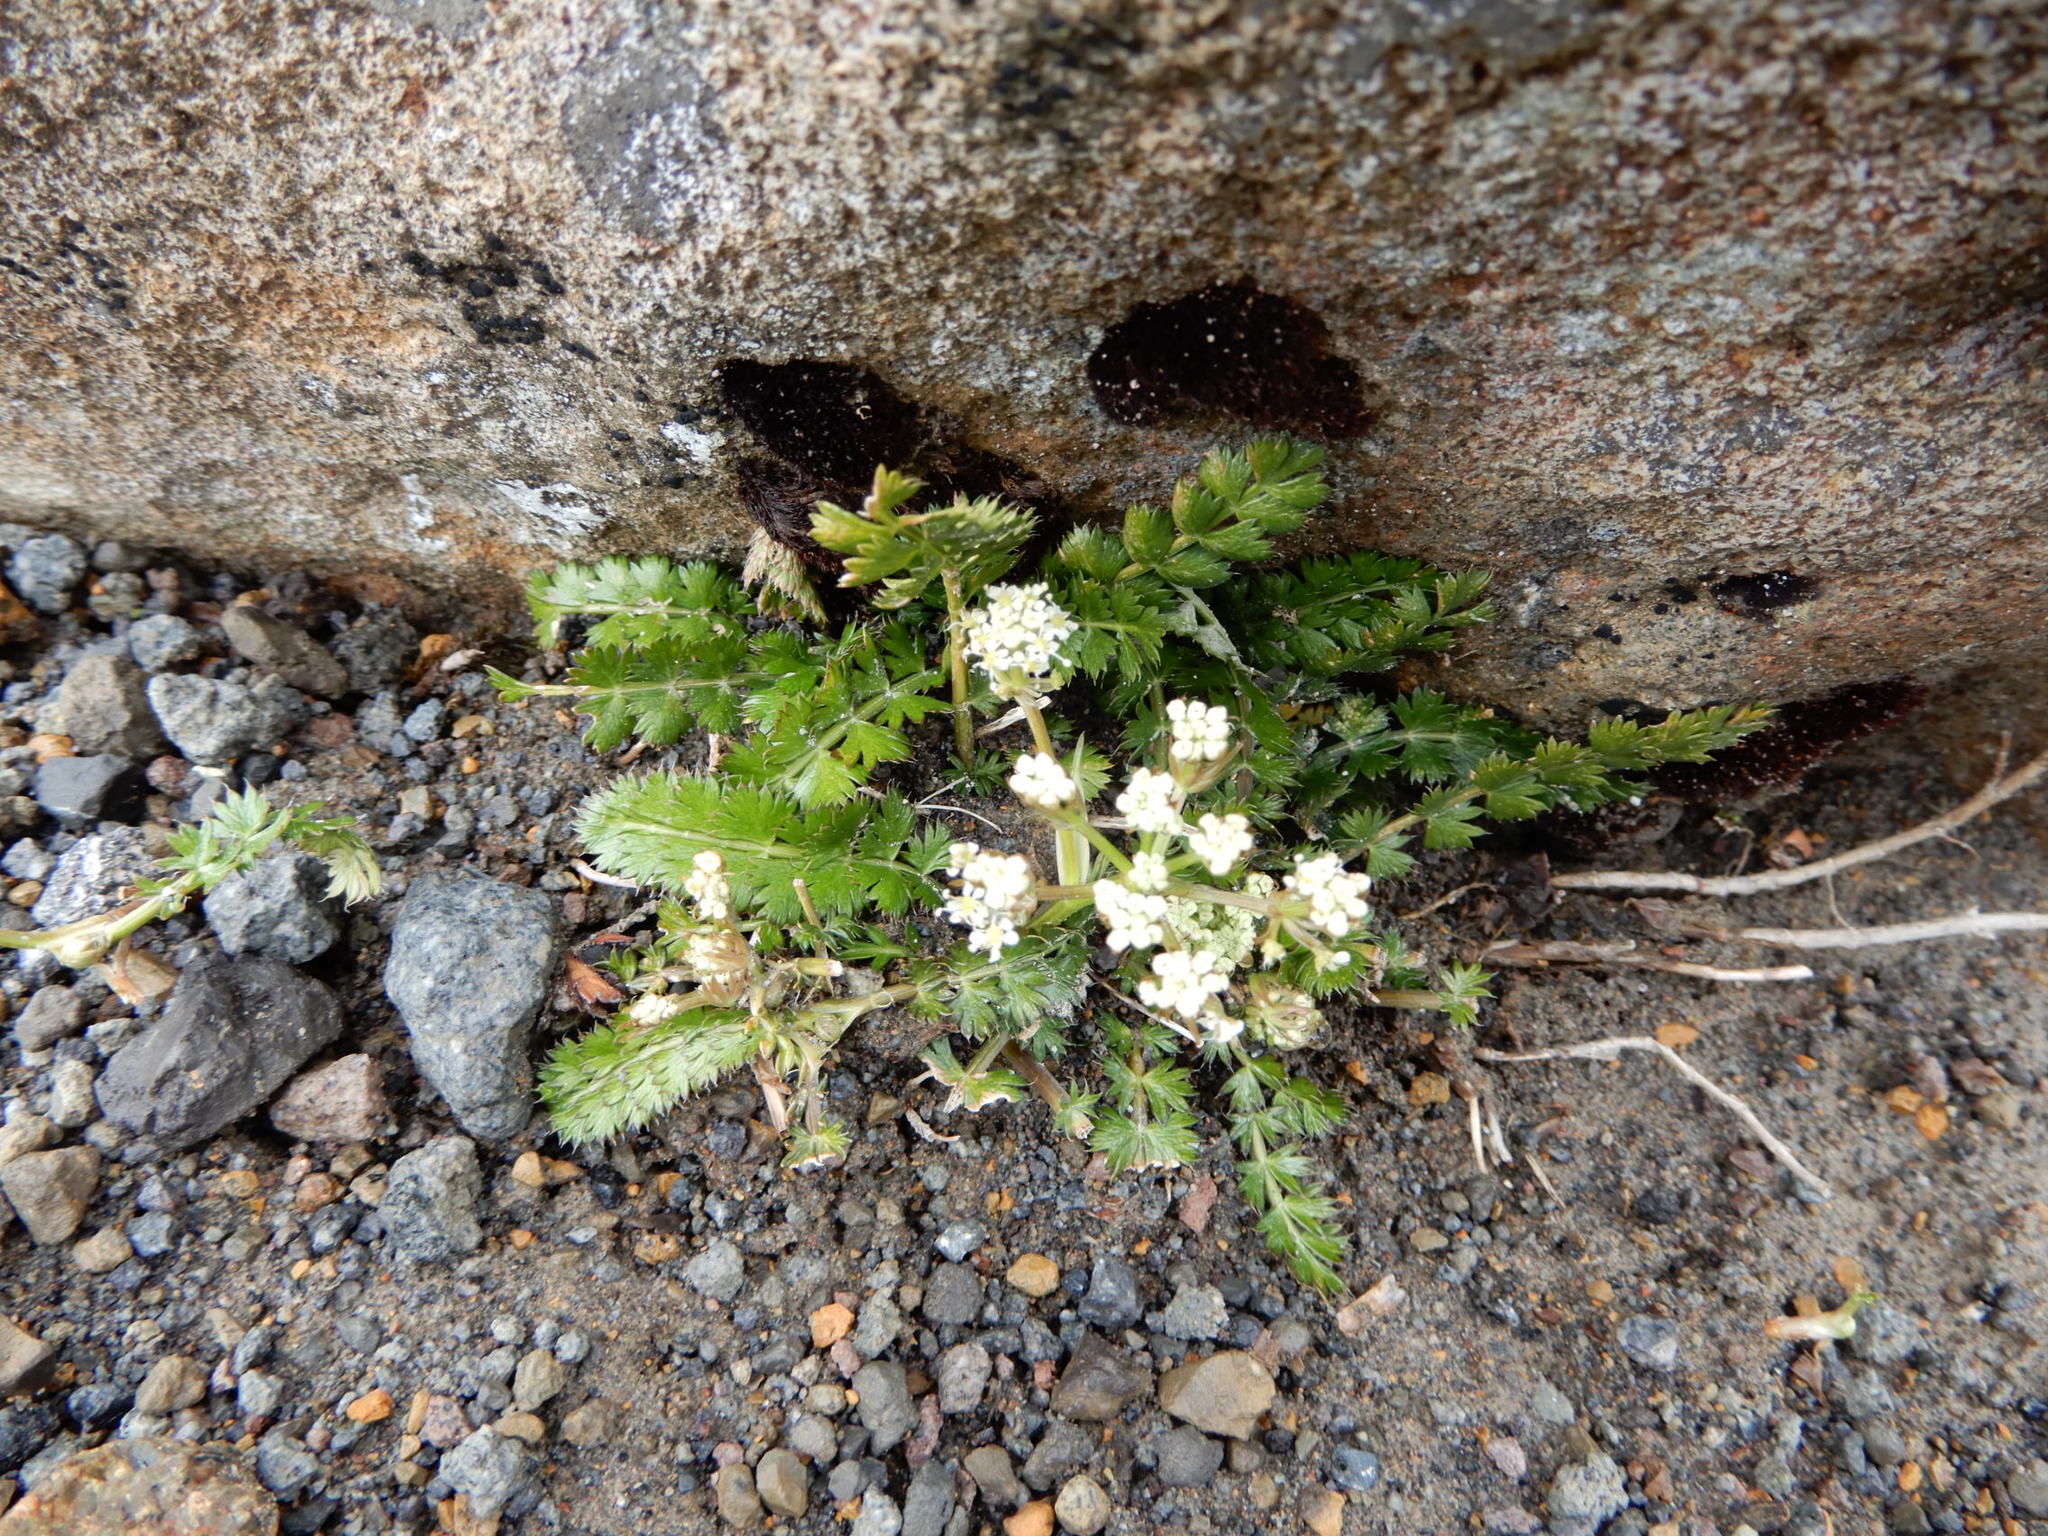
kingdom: Plantae
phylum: Tracheophyta
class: Magnoliopsida
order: Apiales
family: Apiaceae
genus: Anisotome
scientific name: Anisotome aromatica
